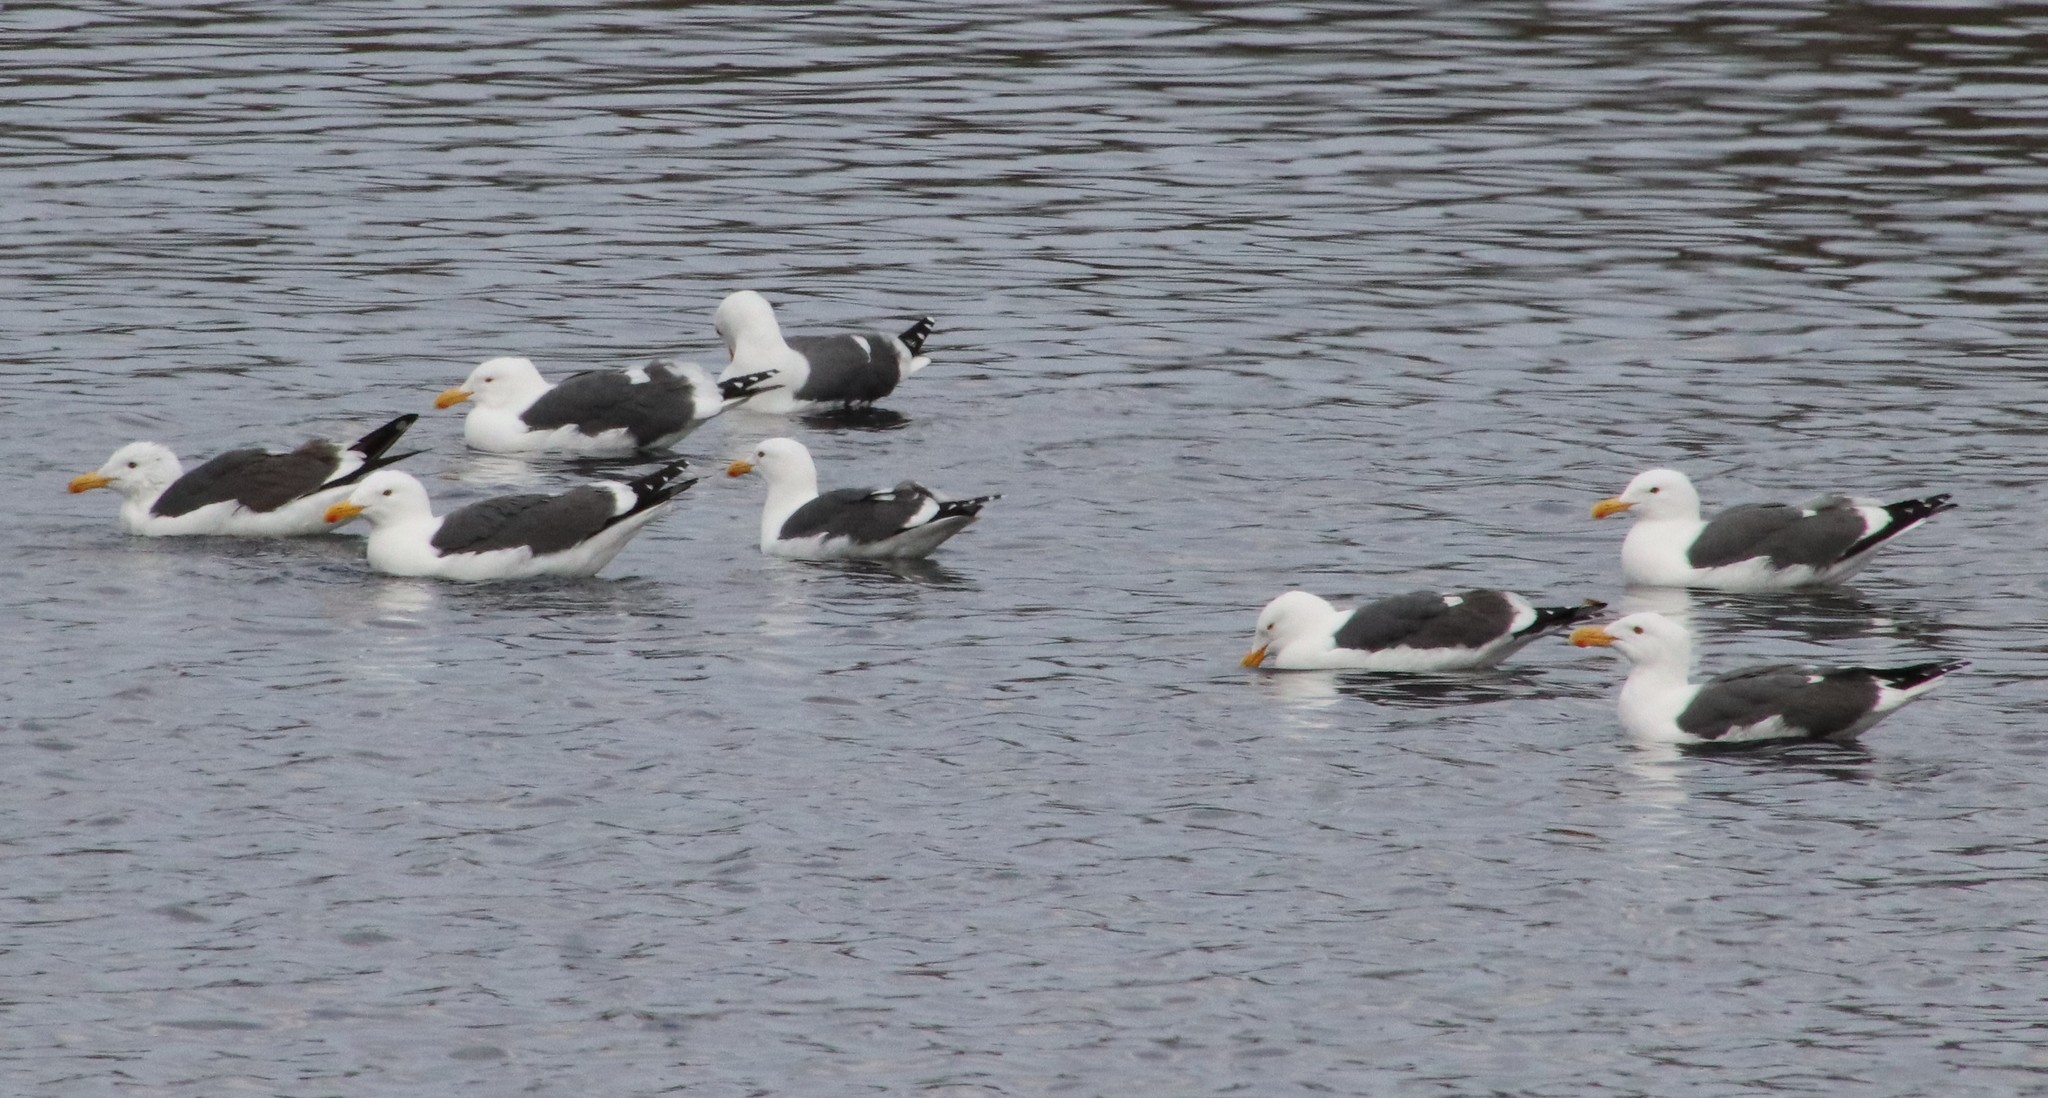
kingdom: Animalia
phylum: Chordata
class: Aves
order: Charadriiformes
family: Laridae
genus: Larus
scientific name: Larus occidentalis
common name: Western gull
